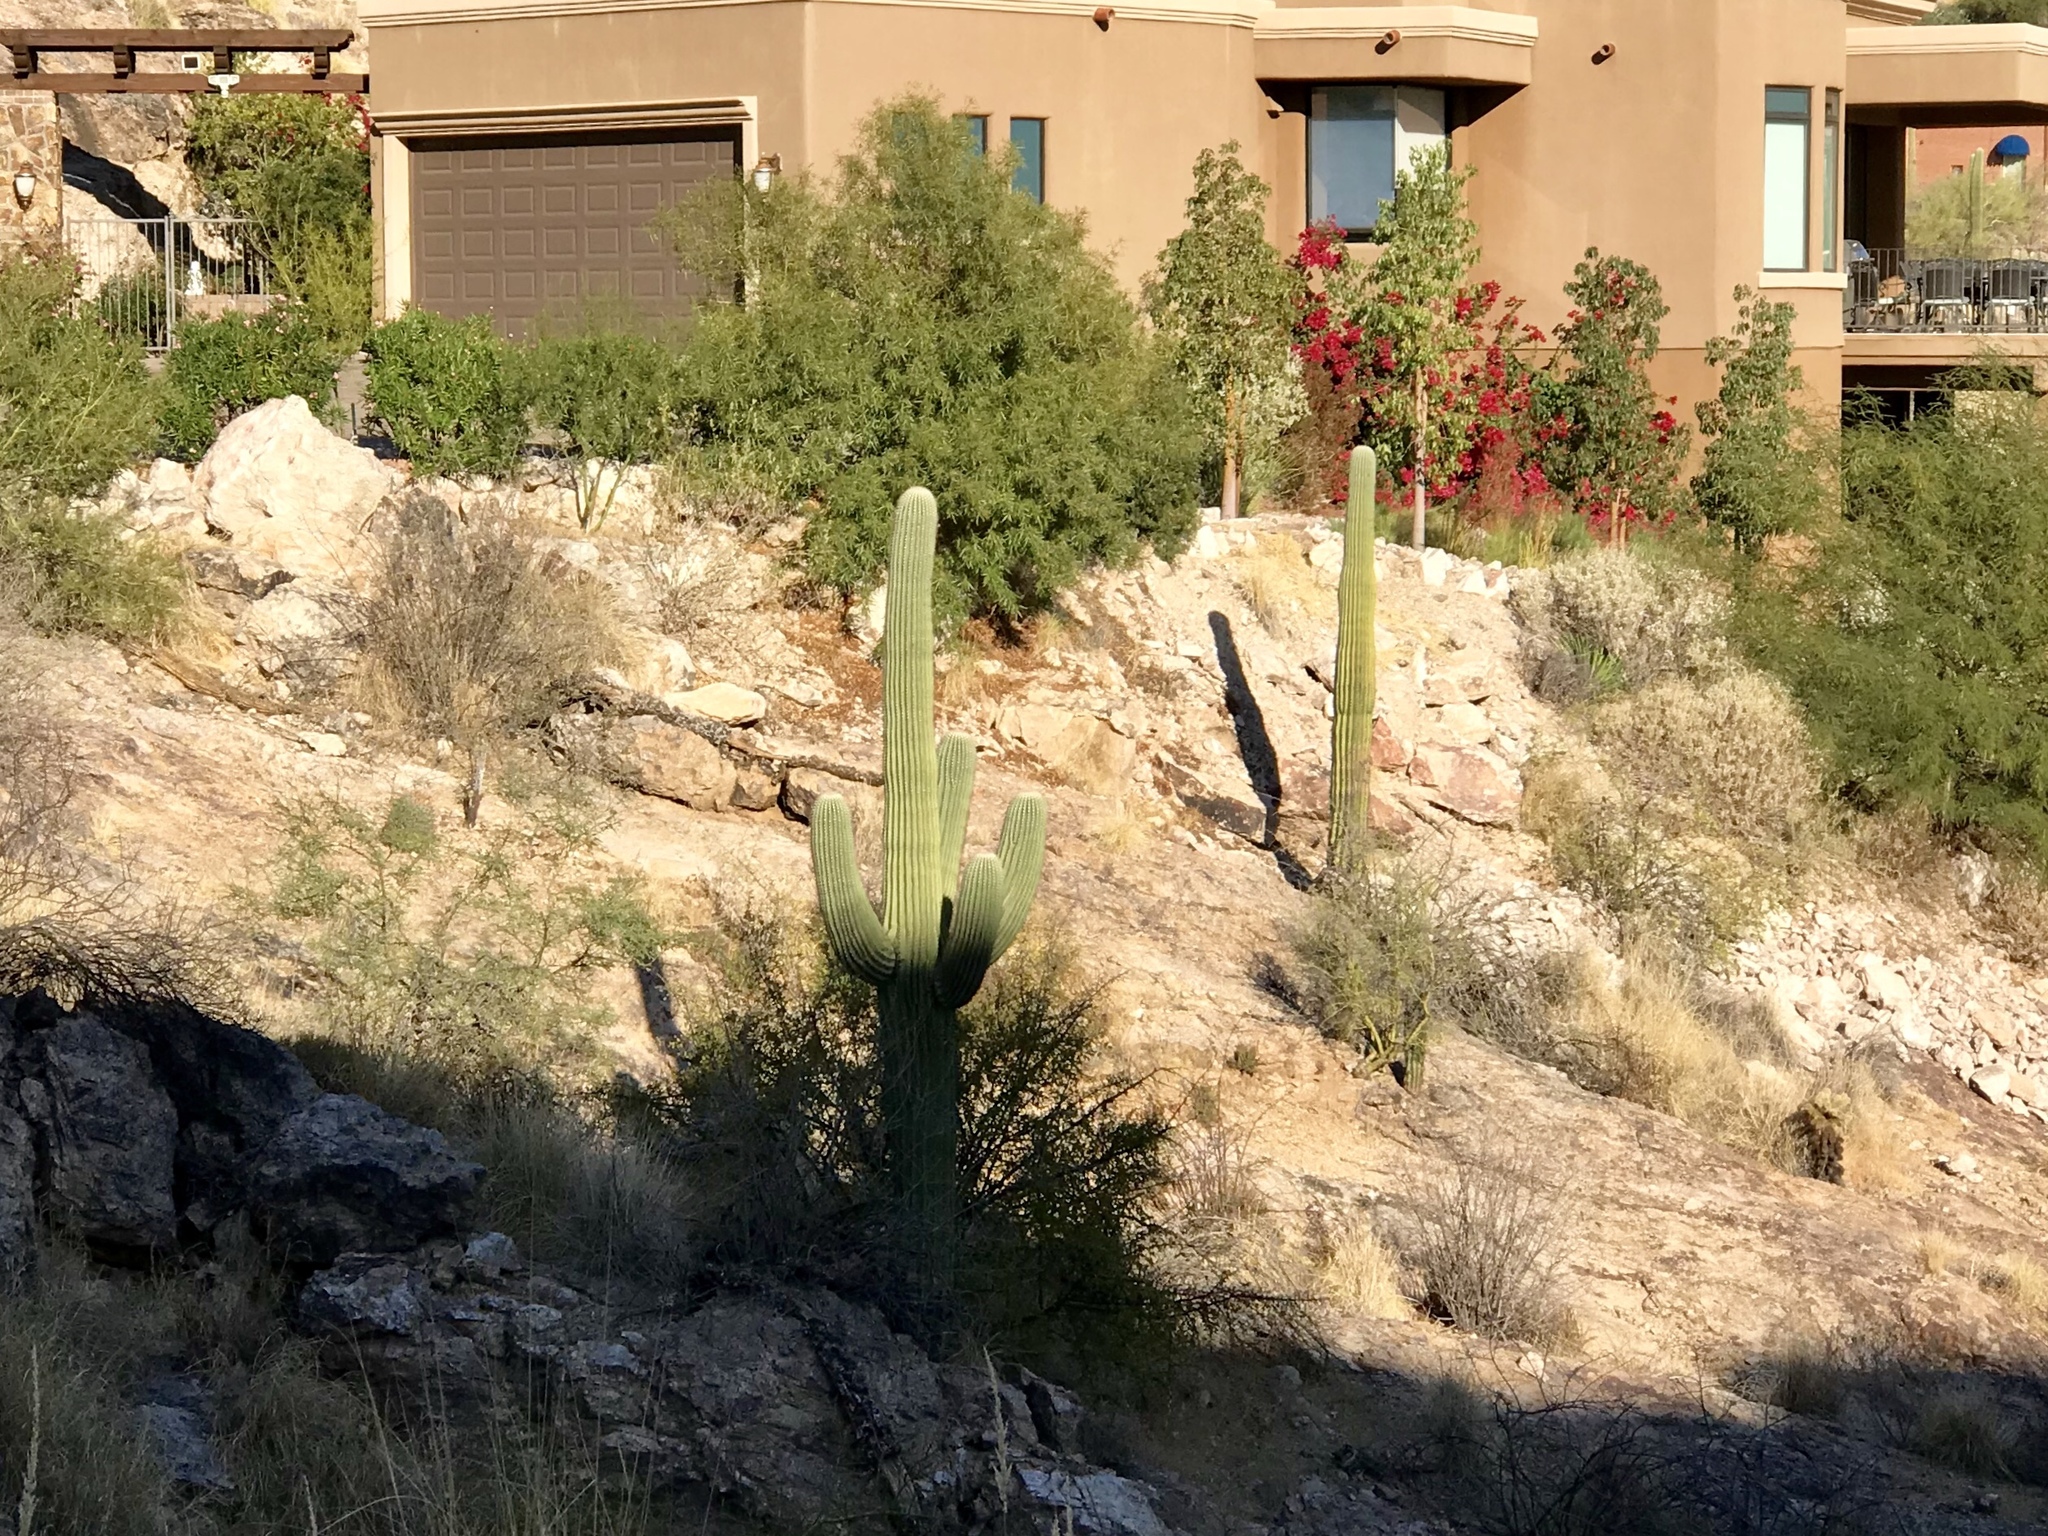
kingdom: Plantae
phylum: Tracheophyta
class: Magnoliopsida
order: Caryophyllales
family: Cactaceae
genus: Carnegiea
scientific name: Carnegiea gigantea
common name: Saguaro
